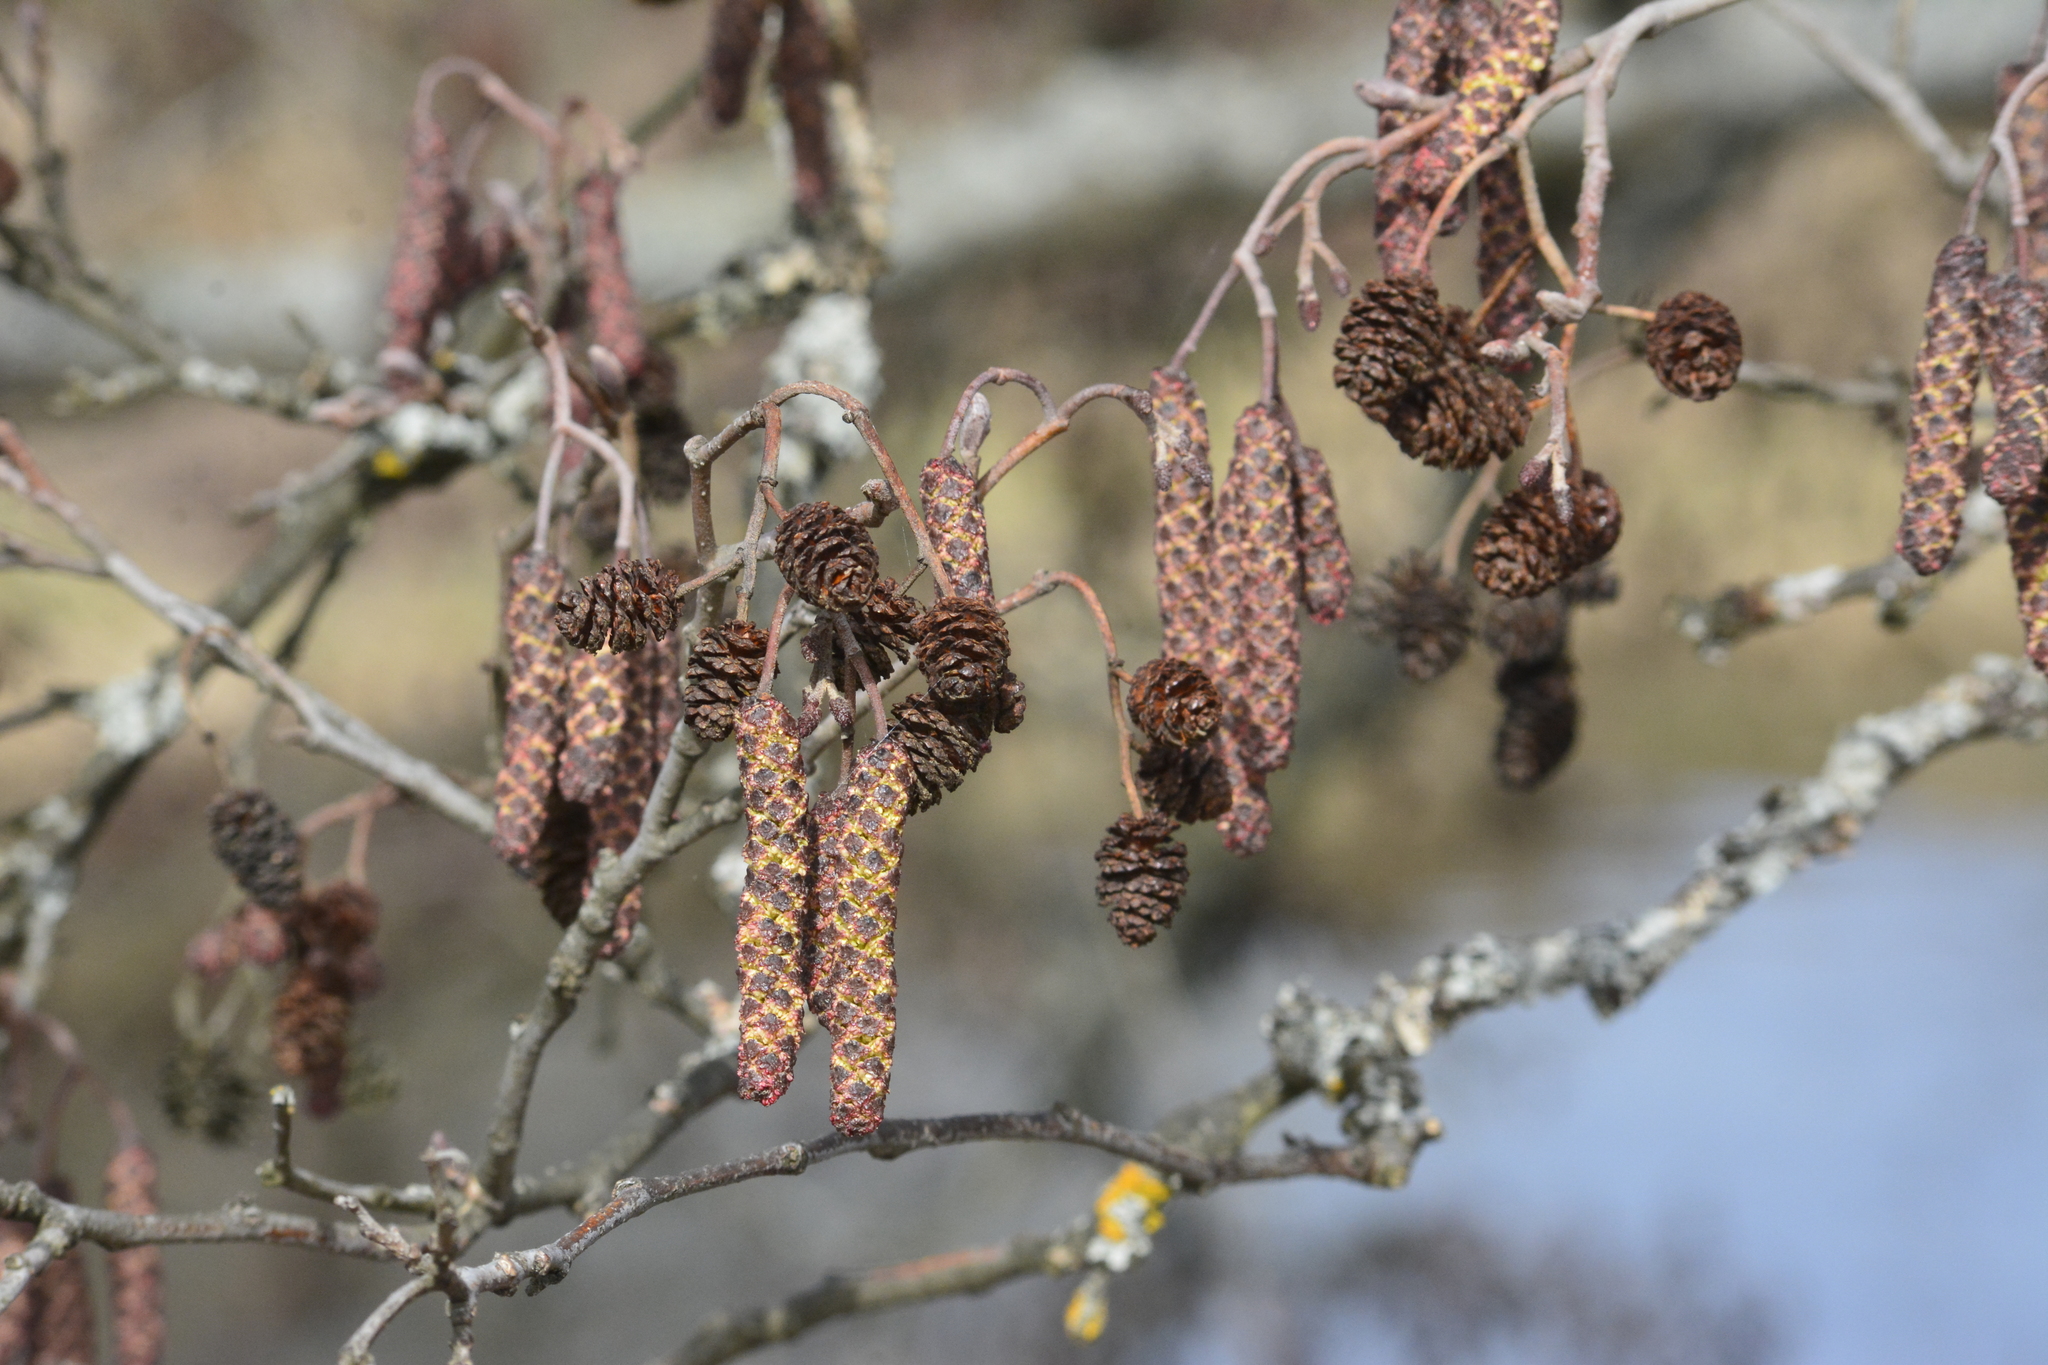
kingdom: Plantae
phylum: Tracheophyta
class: Magnoliopsida
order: Fagales
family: Betulaceae
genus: Alnus
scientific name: Alnus glutinosa
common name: Black alder
